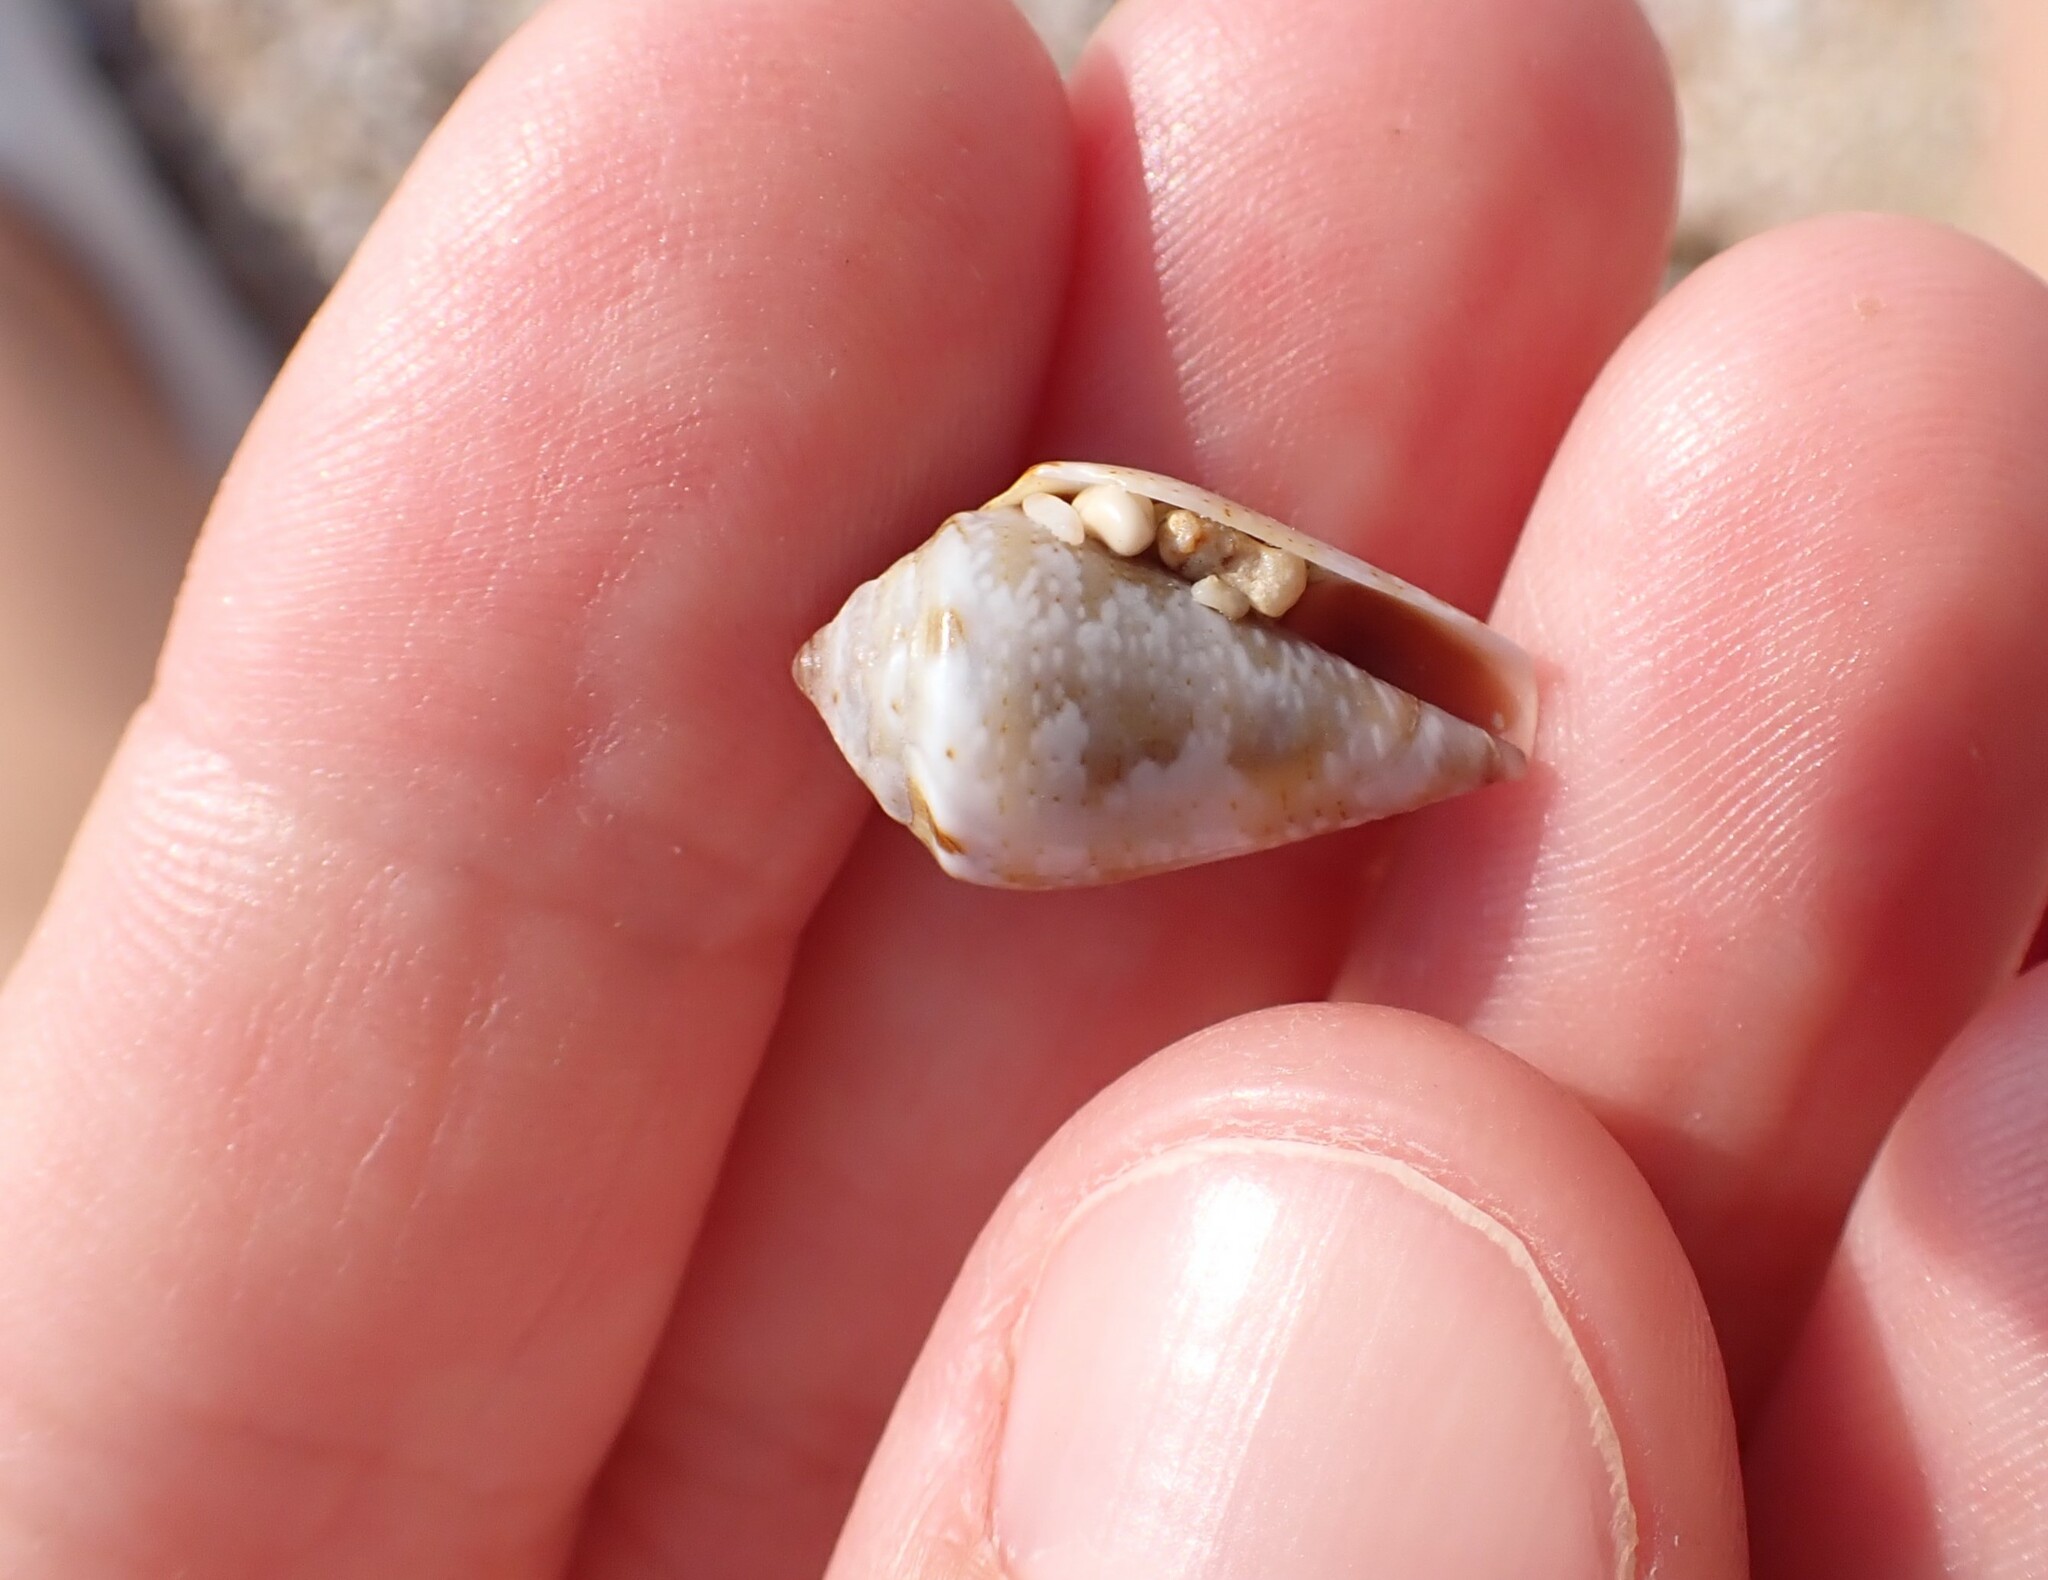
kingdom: Animalia
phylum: Mollusca
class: Gastropoda
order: Neogastropoda
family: Conidae
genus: Conus
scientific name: Conus ventricosus
